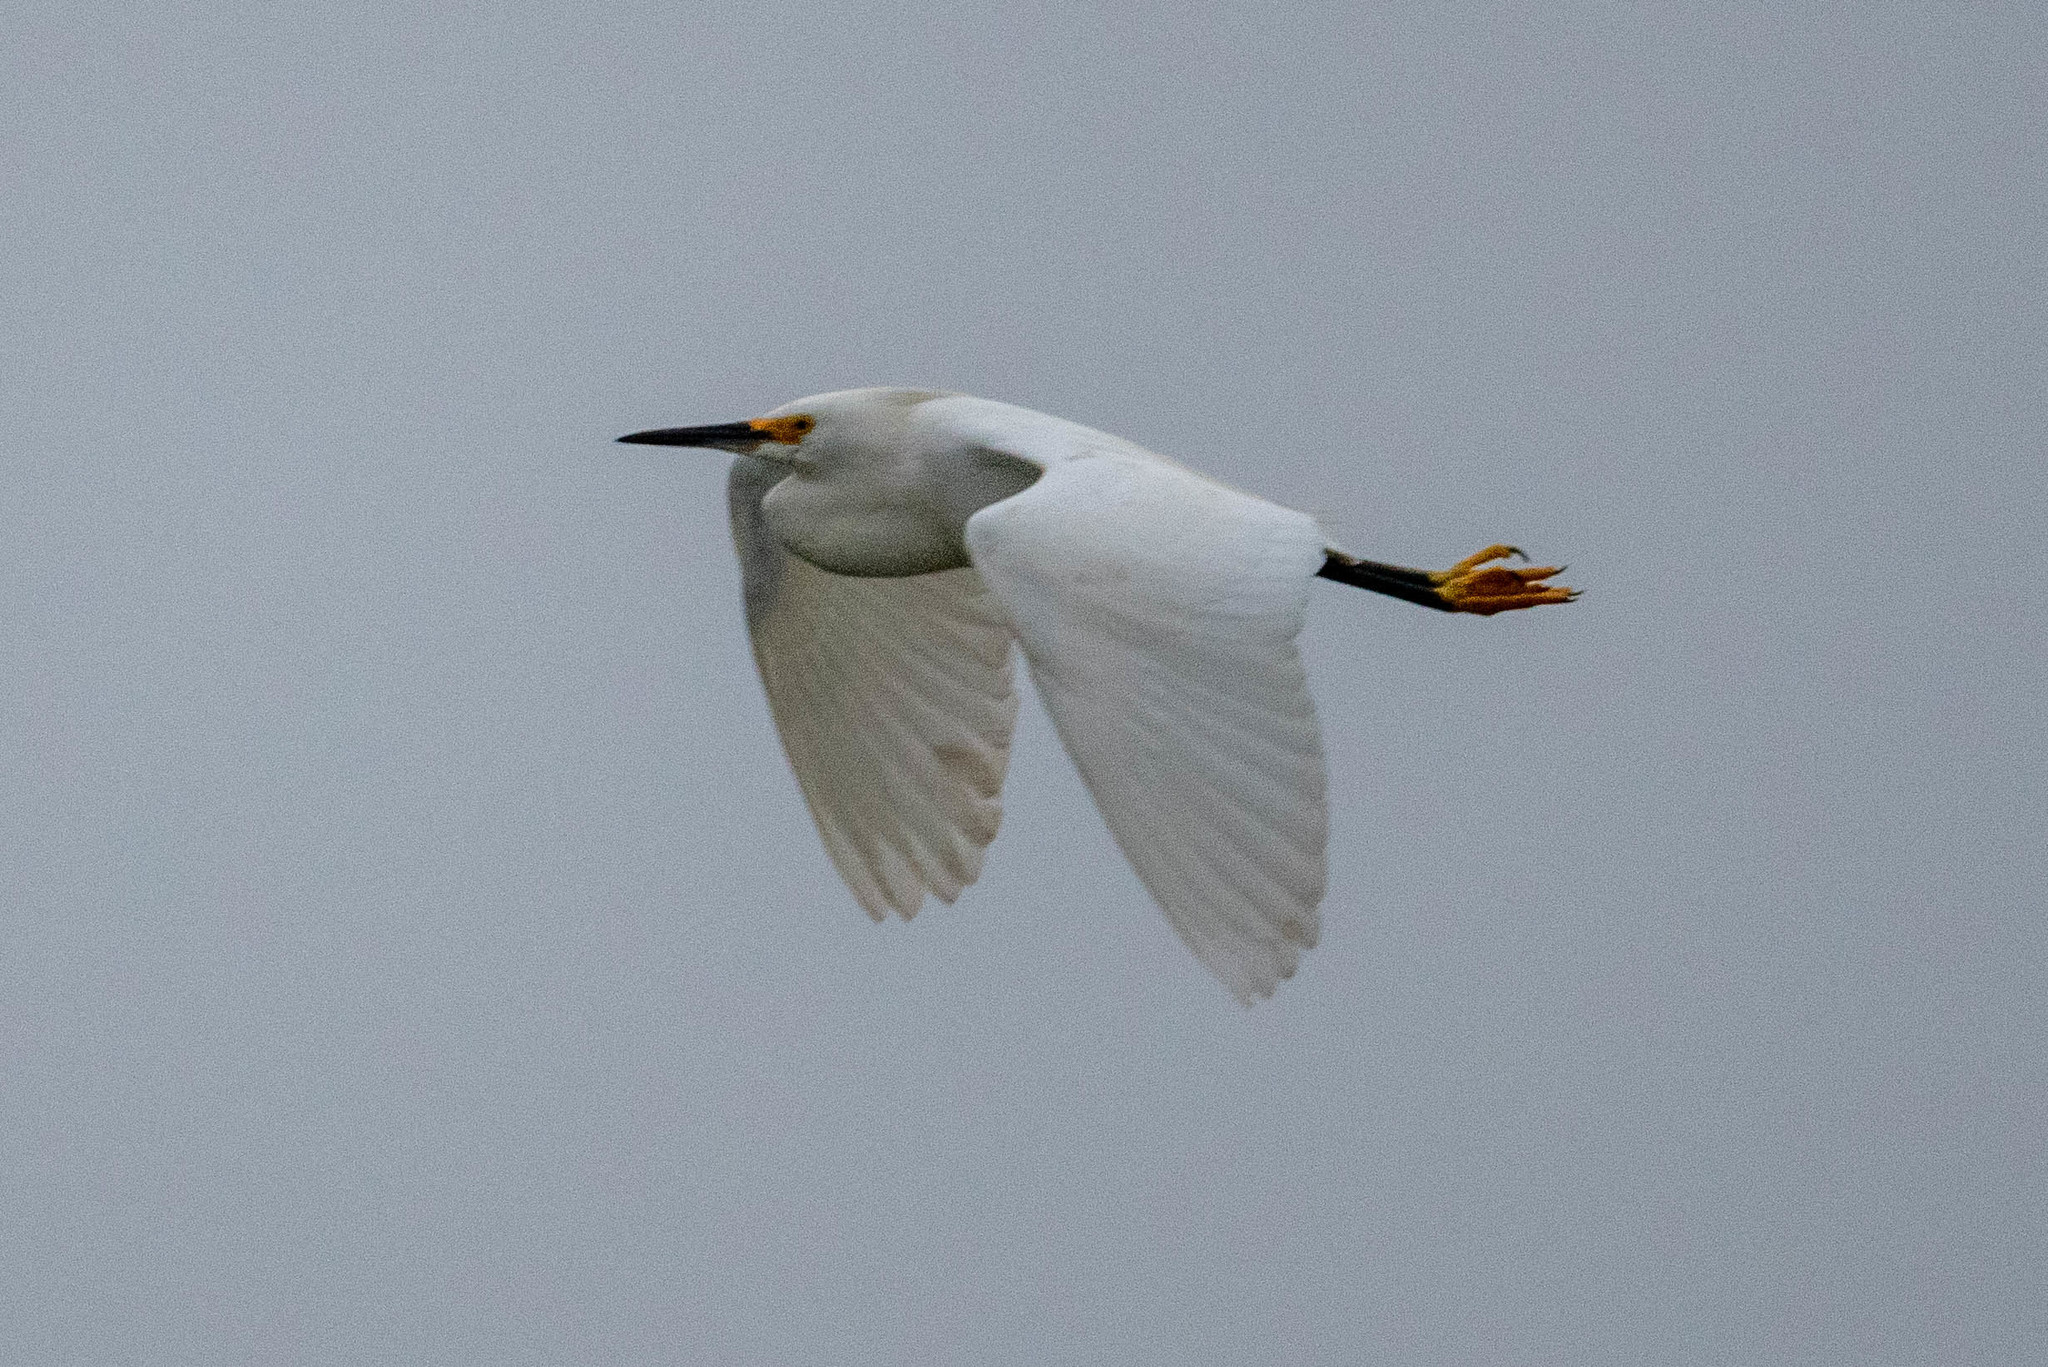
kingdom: Animalia
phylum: Chordata
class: Aves
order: Pelecaniformes
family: Ardeidae
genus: Egretta
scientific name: Egretta thula
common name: Snowy egret
